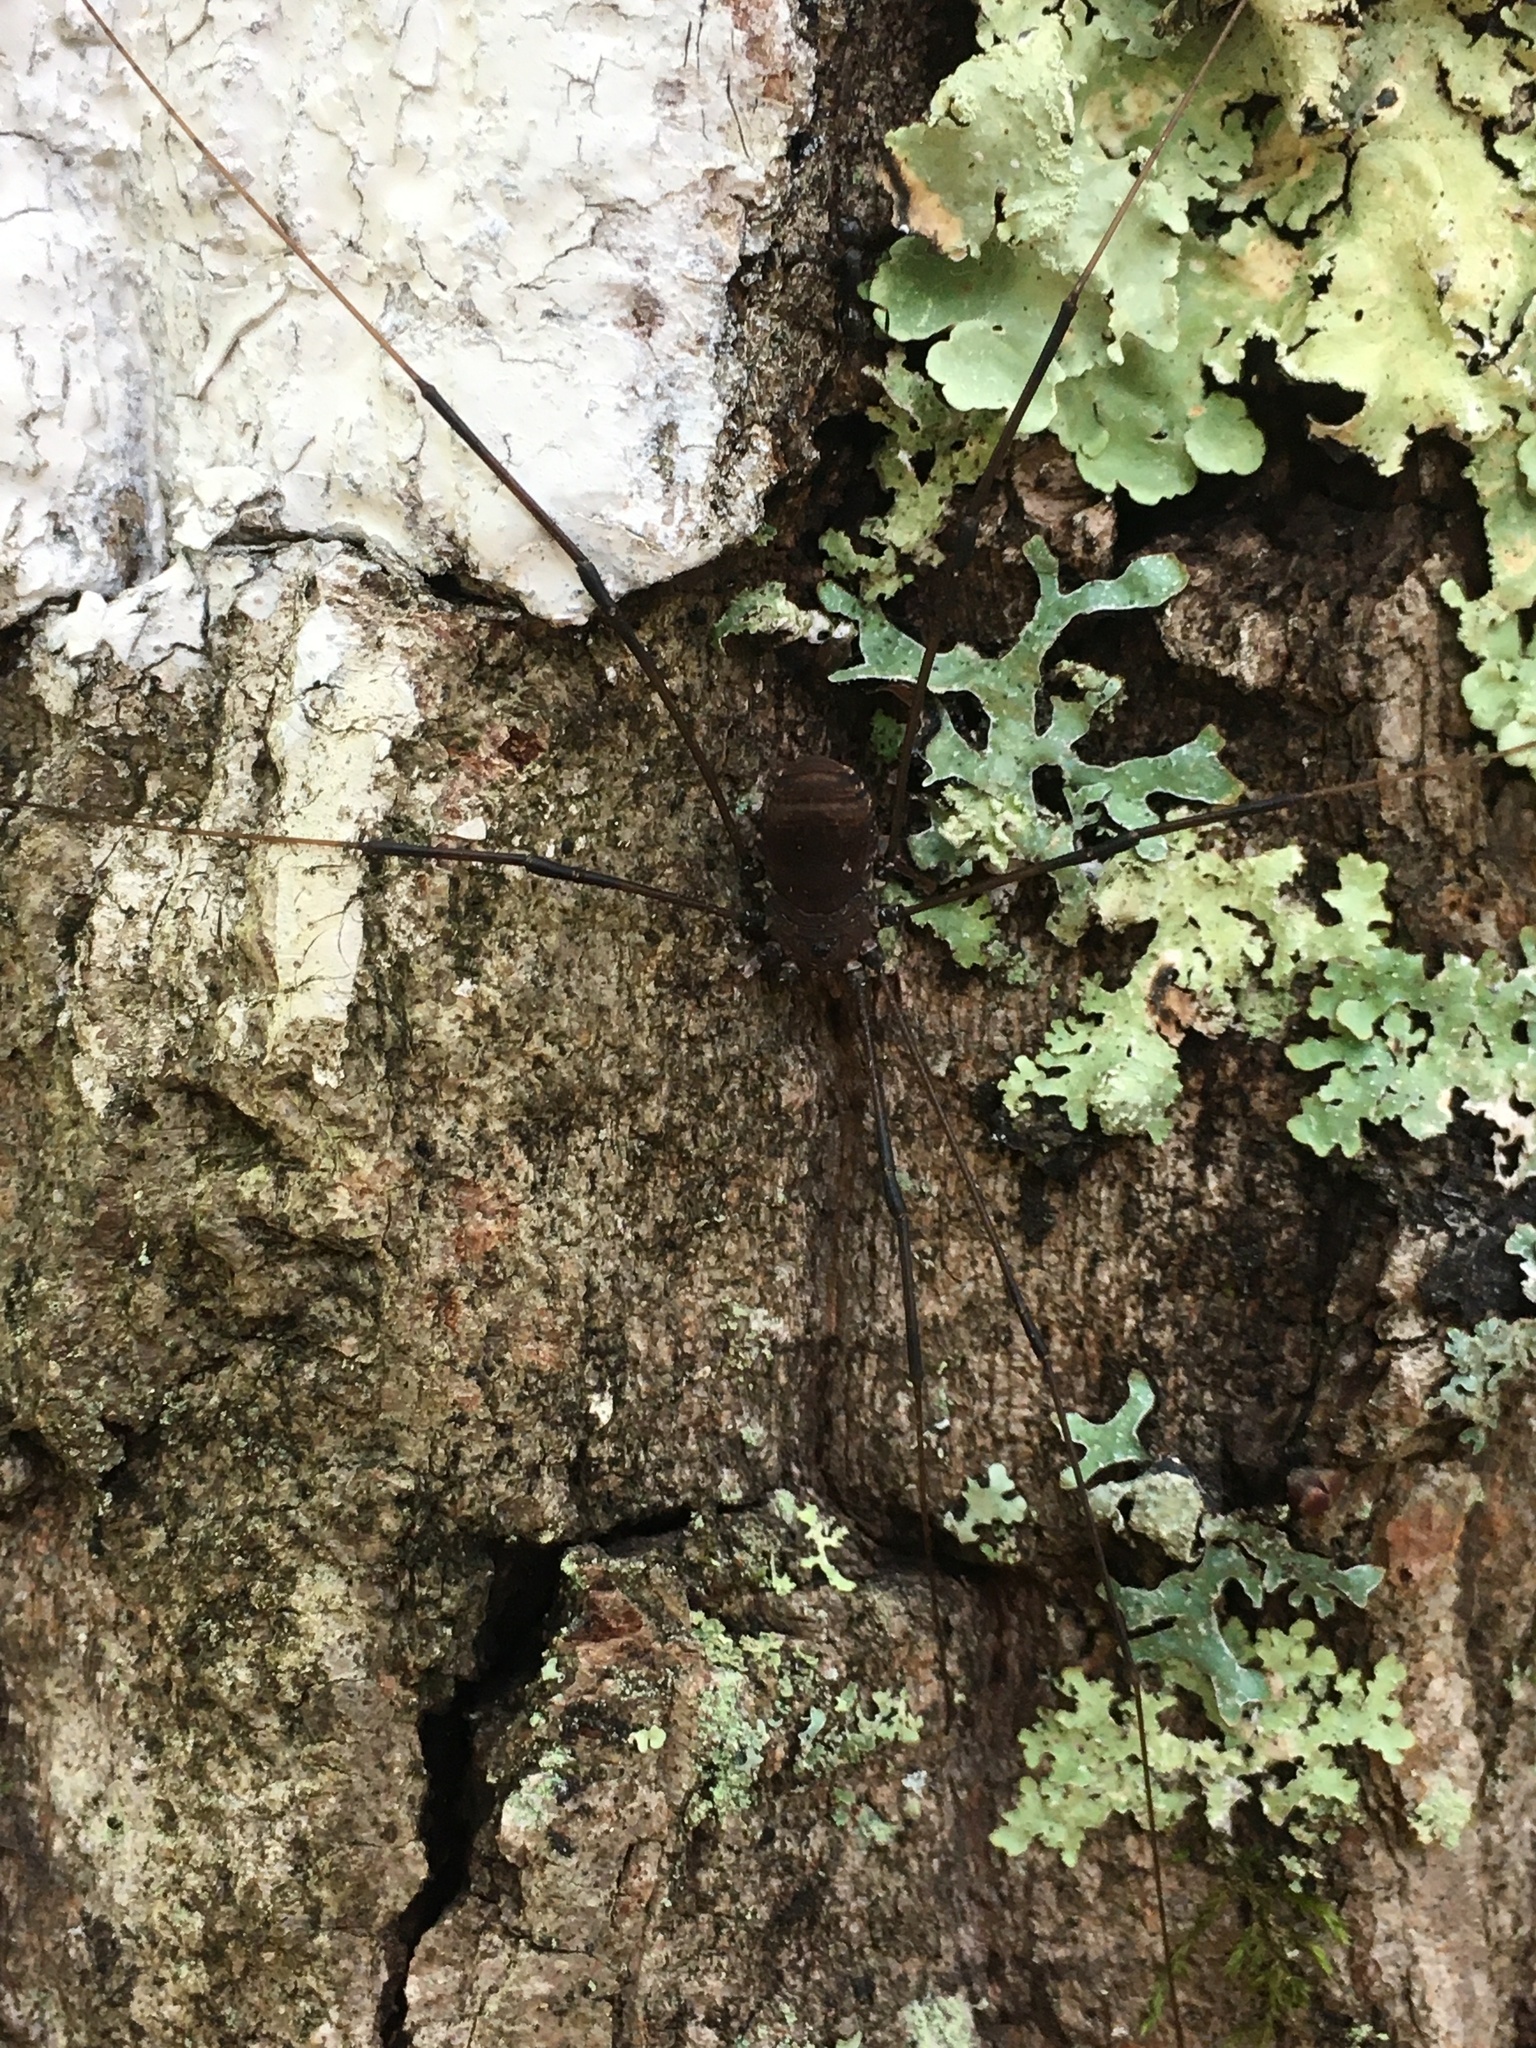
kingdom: Animalia
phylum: Arthropoda
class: Arachnida
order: Opiliones
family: Sclerosomatidae
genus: Leiobunum
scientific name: Leiobunum vittatum
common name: Eastern harvestman
